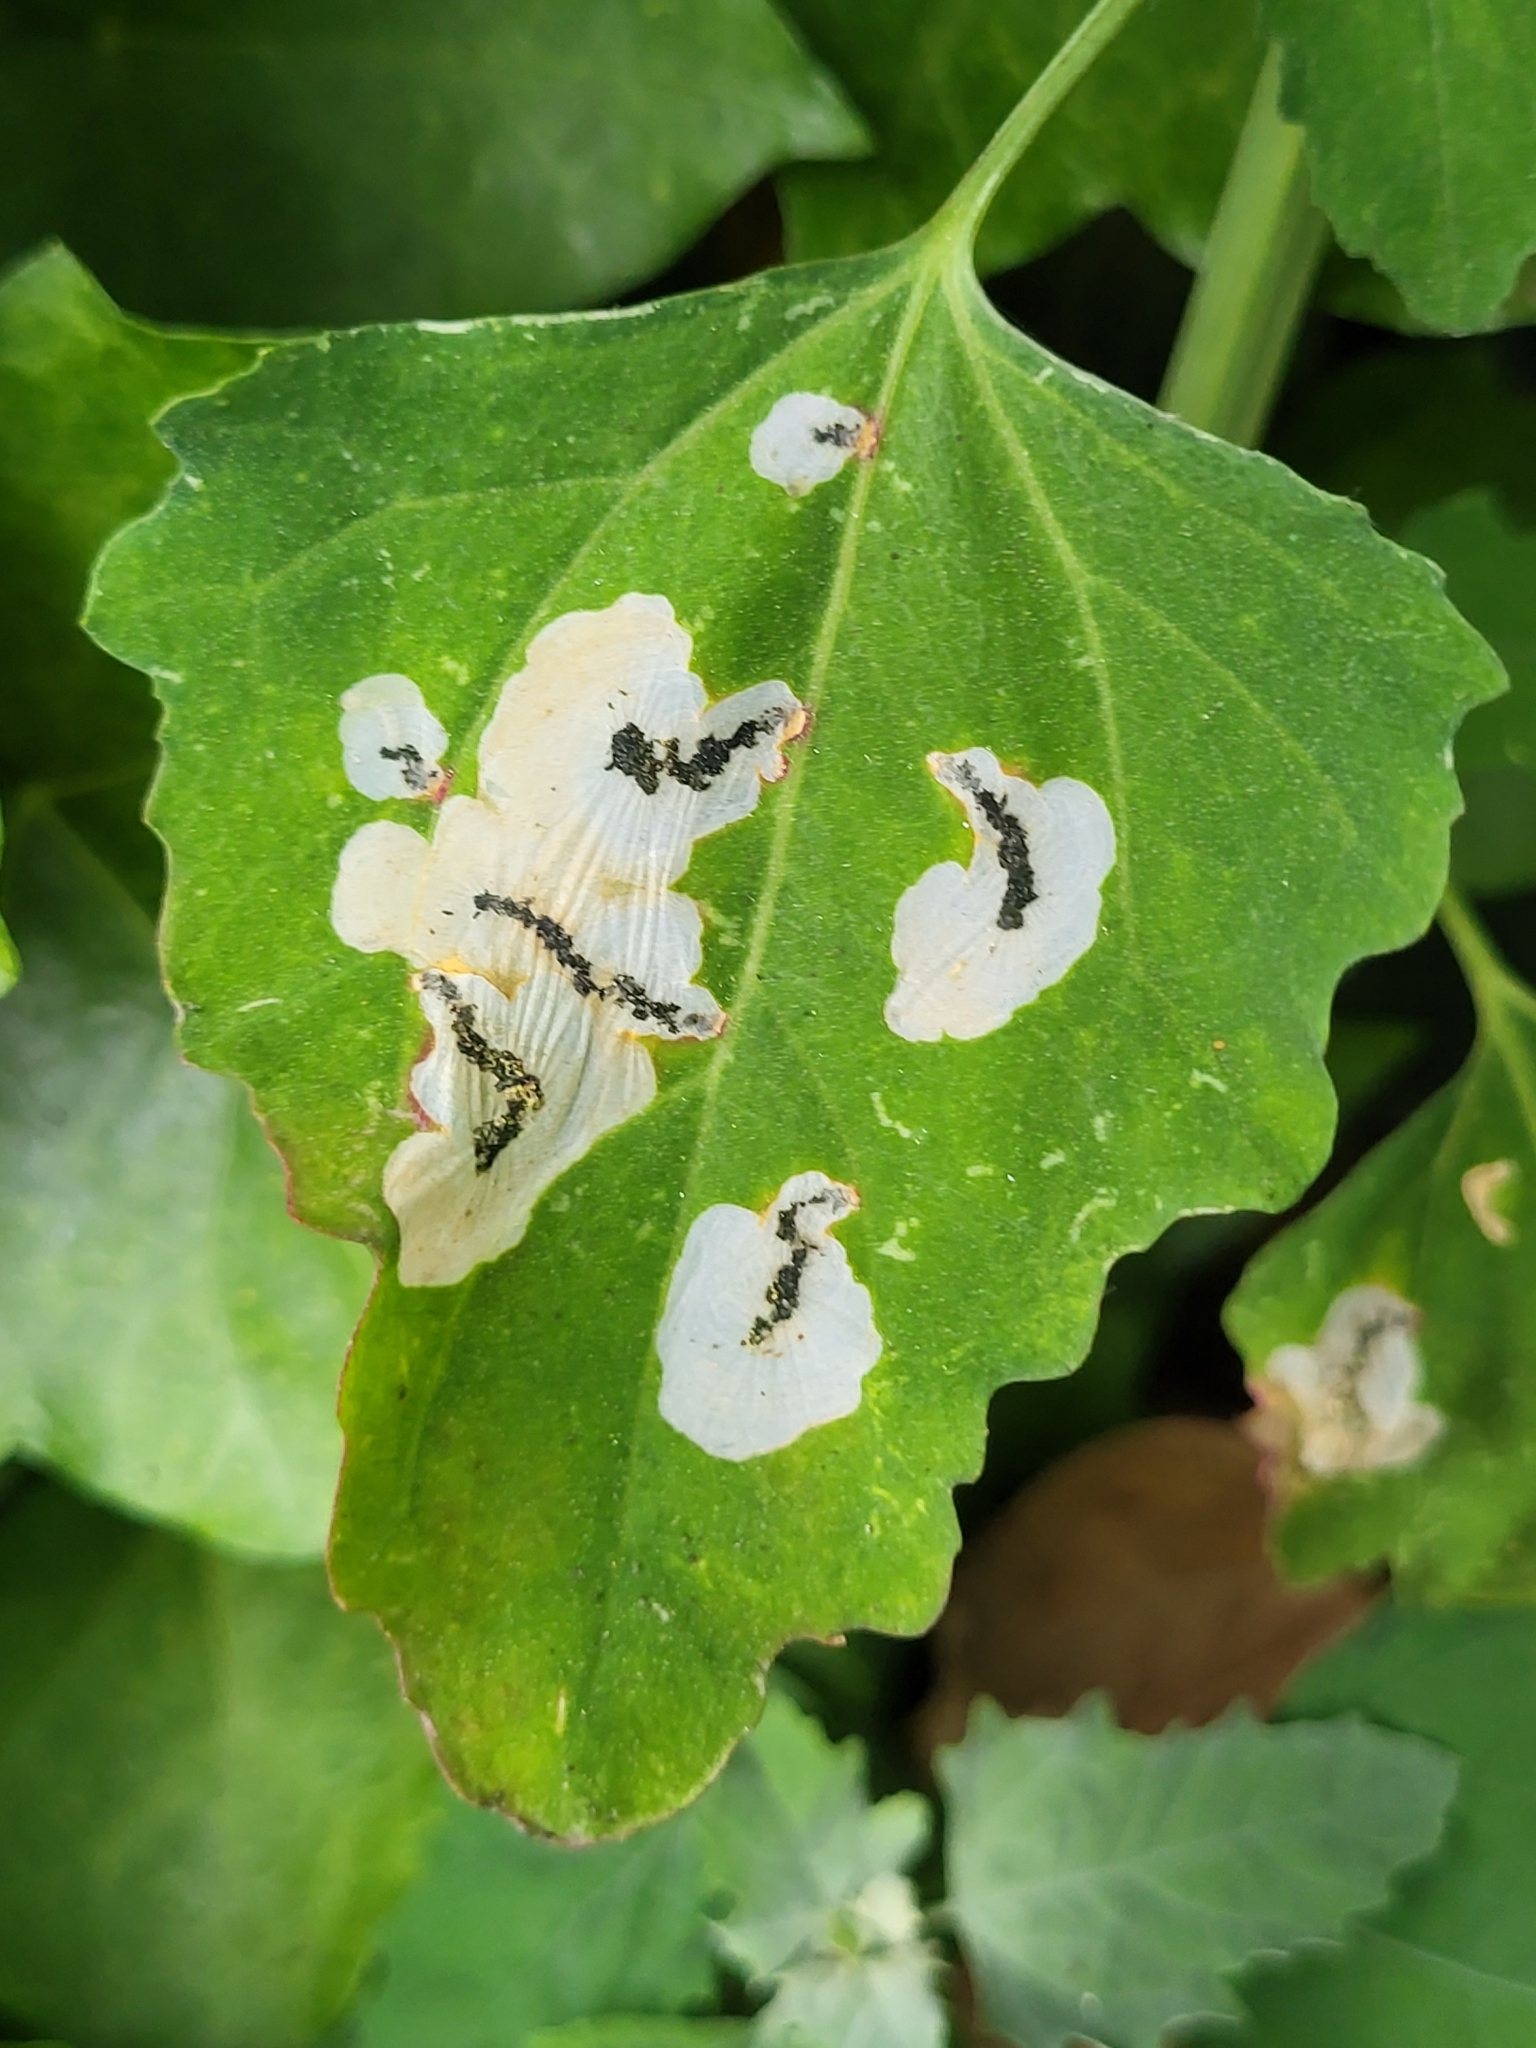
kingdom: Animalia
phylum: Arthropoda
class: Insecta
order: Lepidoptera
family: Gelechiidae
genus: Chrysoesthia
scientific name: Chrysoesthia sexguttella
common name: Moth
